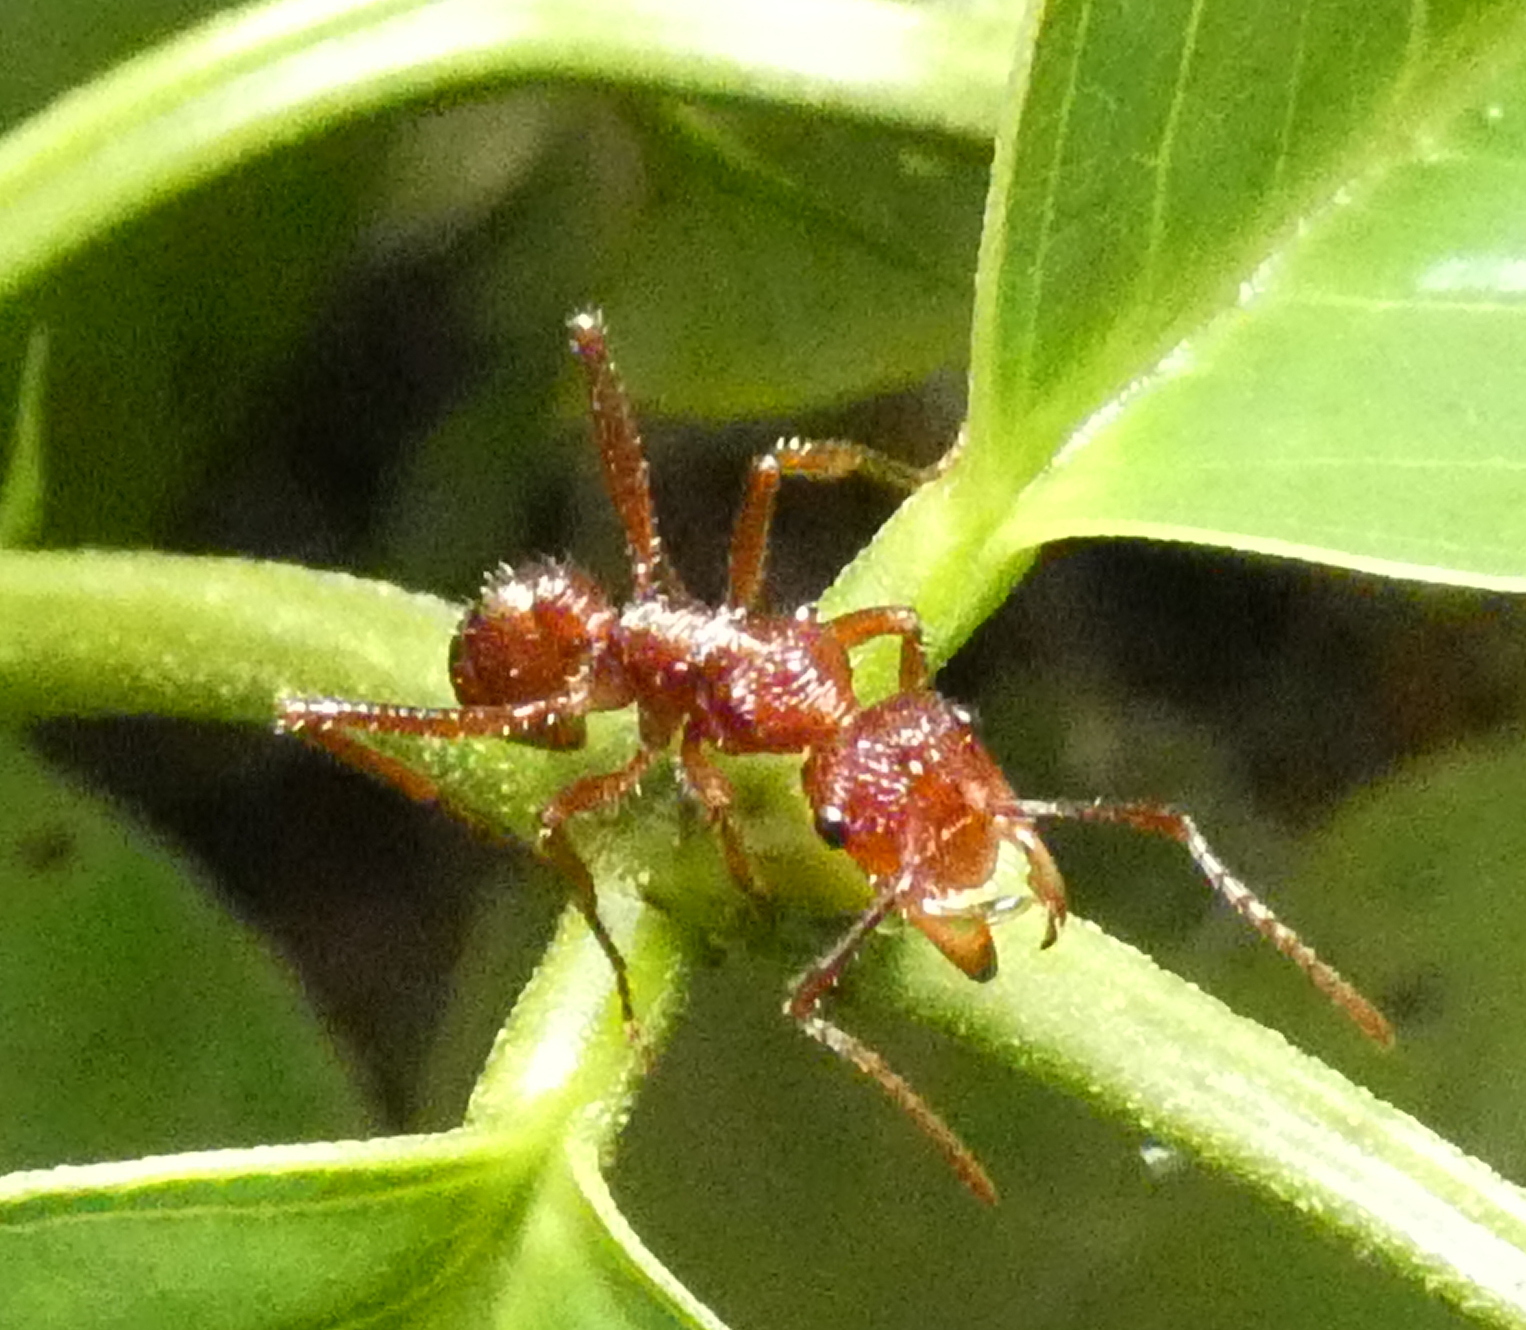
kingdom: Animalia
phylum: Arthropoda
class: Insecta
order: Hymenoptera
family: Formicidae
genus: Ectatomma
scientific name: Ectatomma tuberculatum
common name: Ant
